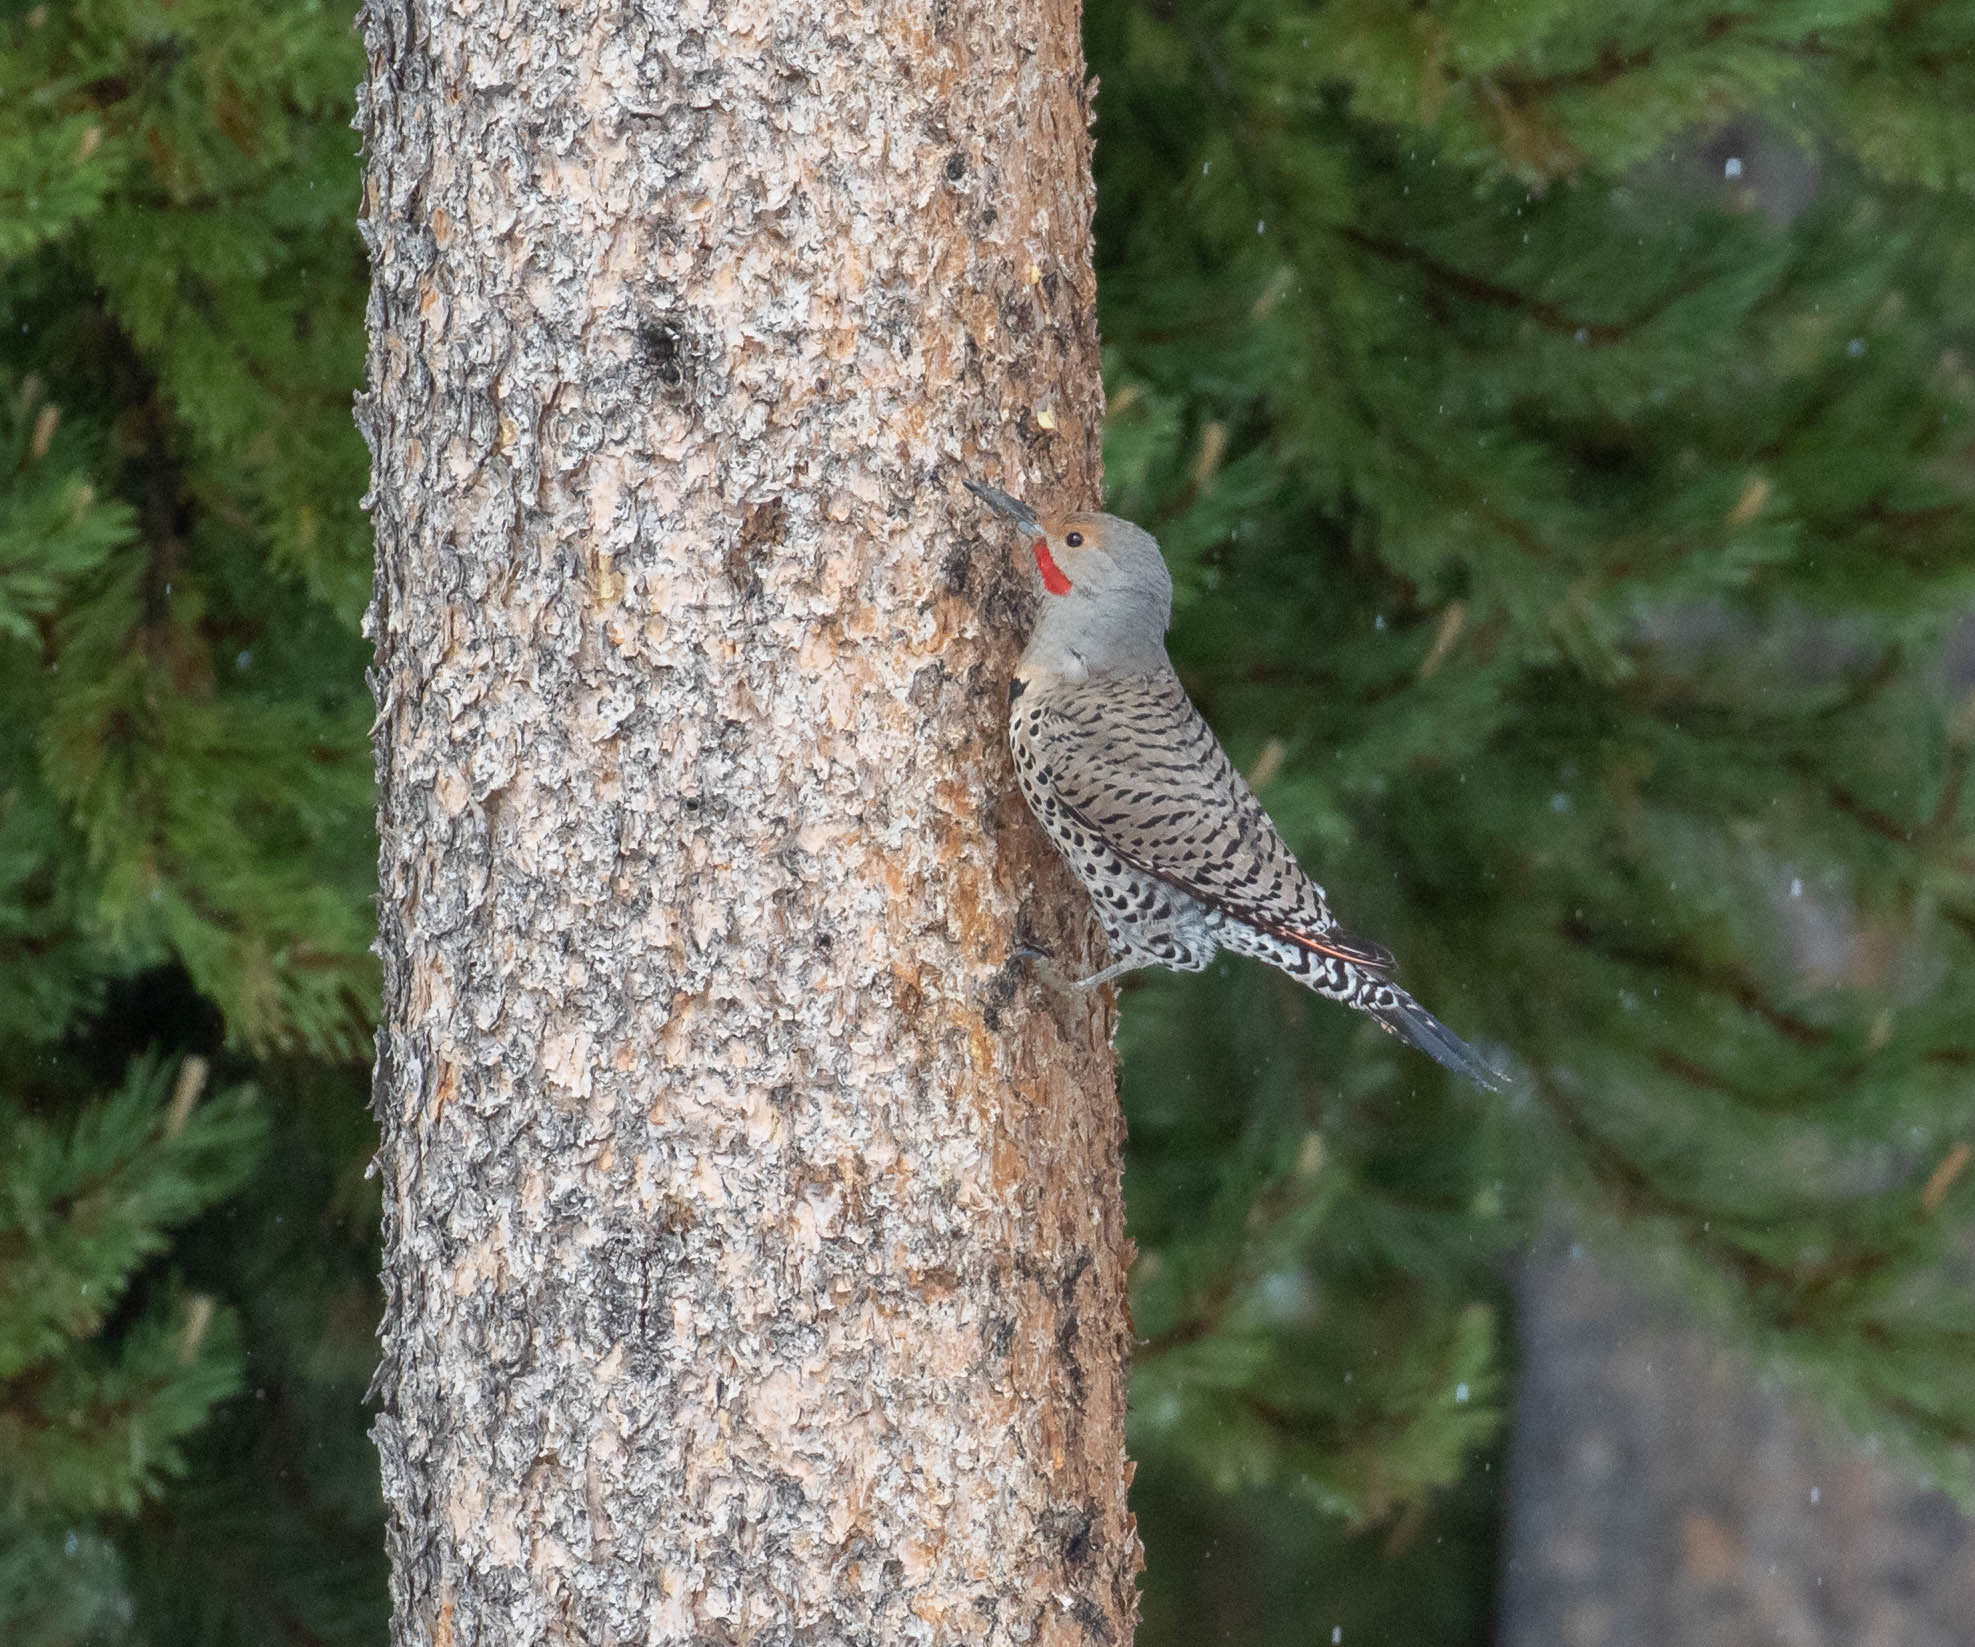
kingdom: Animalia
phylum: Chordata
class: Aves
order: Piciformes
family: Picidae
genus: Colaptes
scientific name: Colaptes auratus
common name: Northern flicker
